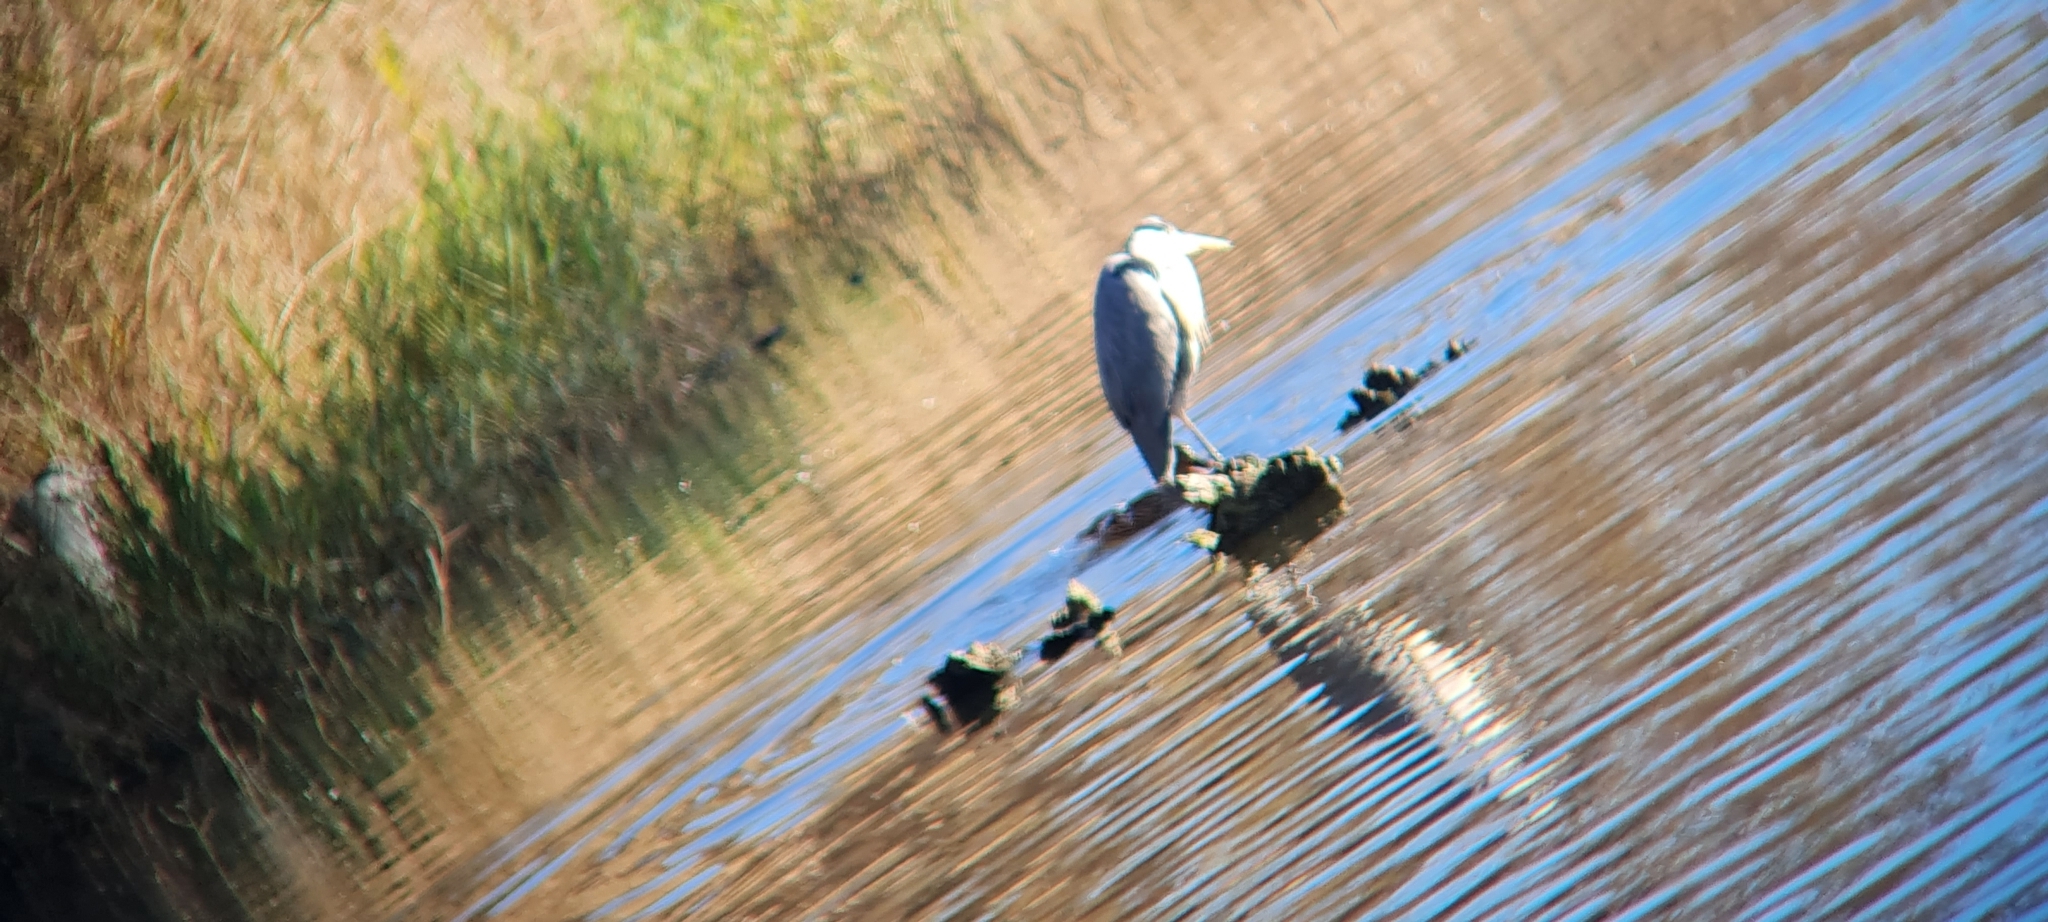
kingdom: Animalia
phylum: Chordata
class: Aves
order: Pelecaniformes
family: Ardeidae
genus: Ardea
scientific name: Ardea cinerea
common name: Grey heron
